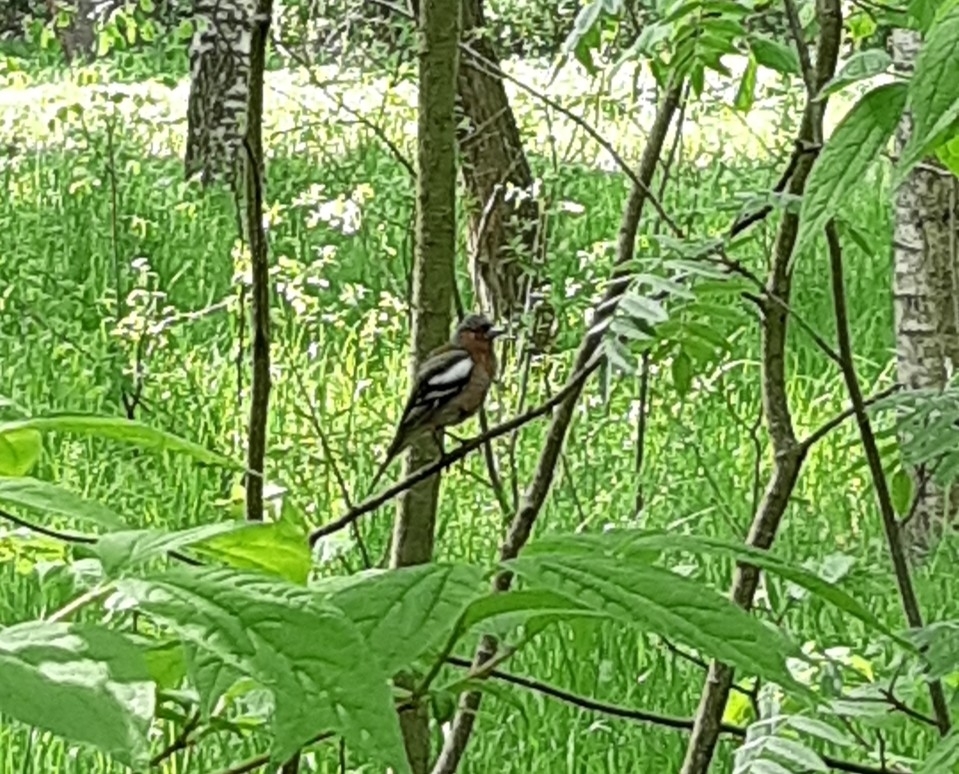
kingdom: Animalia
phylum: Chordata
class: Aves
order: Passeriformes
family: Fringillidae
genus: Fringilla
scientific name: Fringilla coelebs
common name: Common chaffinch
